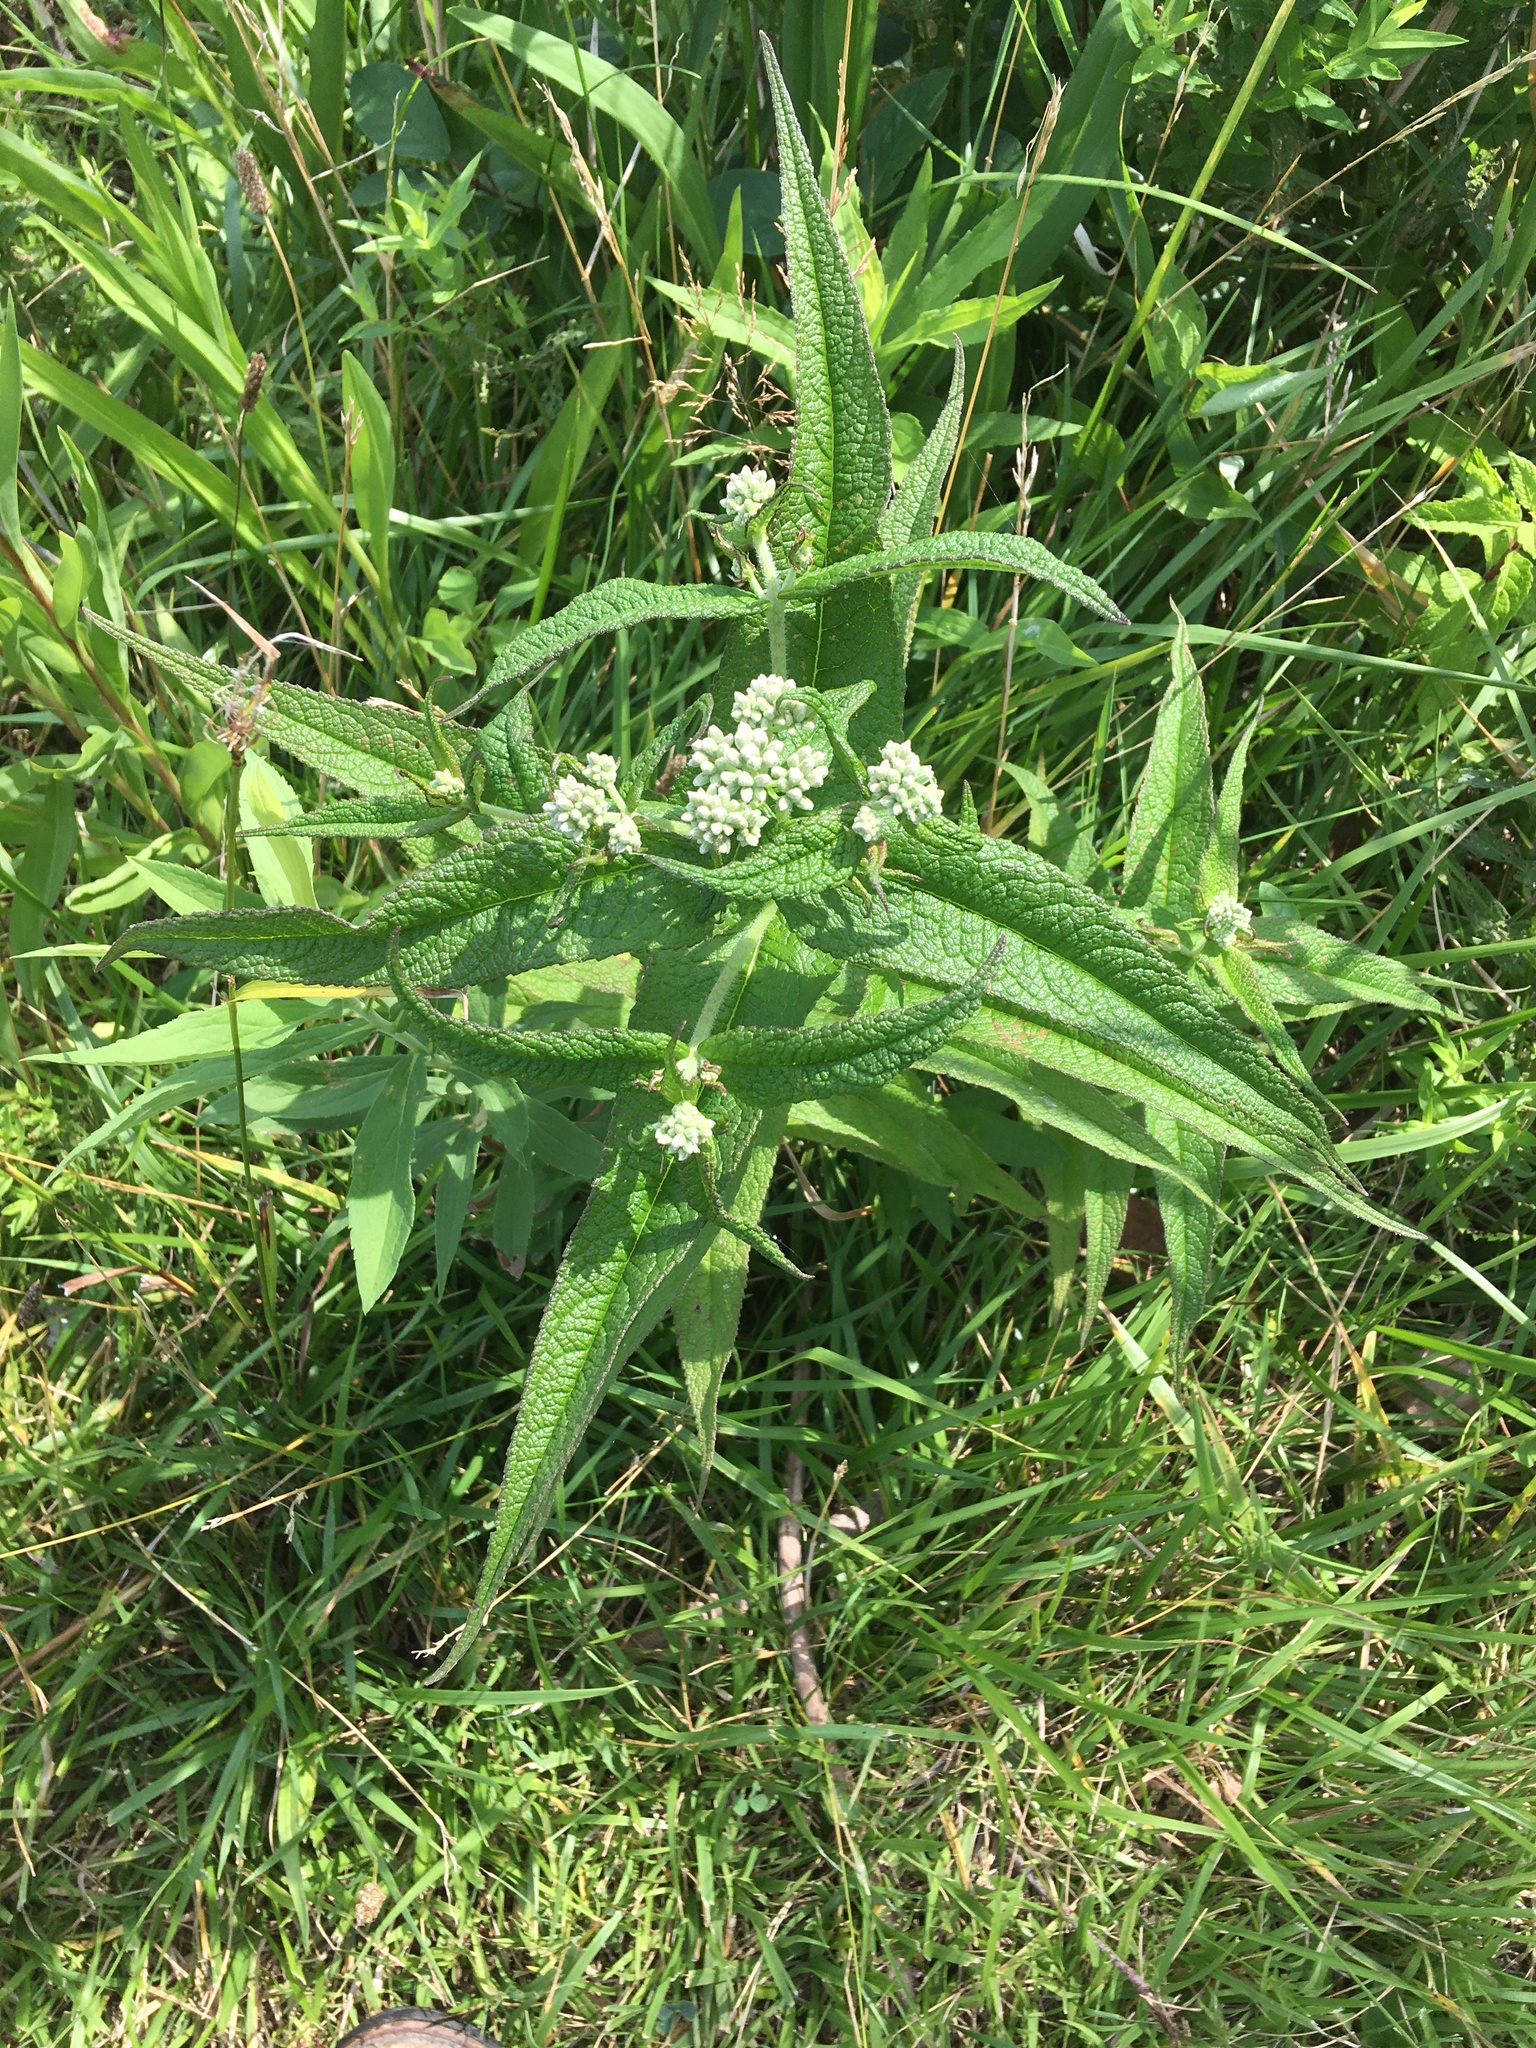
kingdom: Plantae
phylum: Tracheophyta
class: Magnoliopsida
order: Asterales
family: Asteraceae
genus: Eupatorium
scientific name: Eupatorium perfoliatum
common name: Boneset
